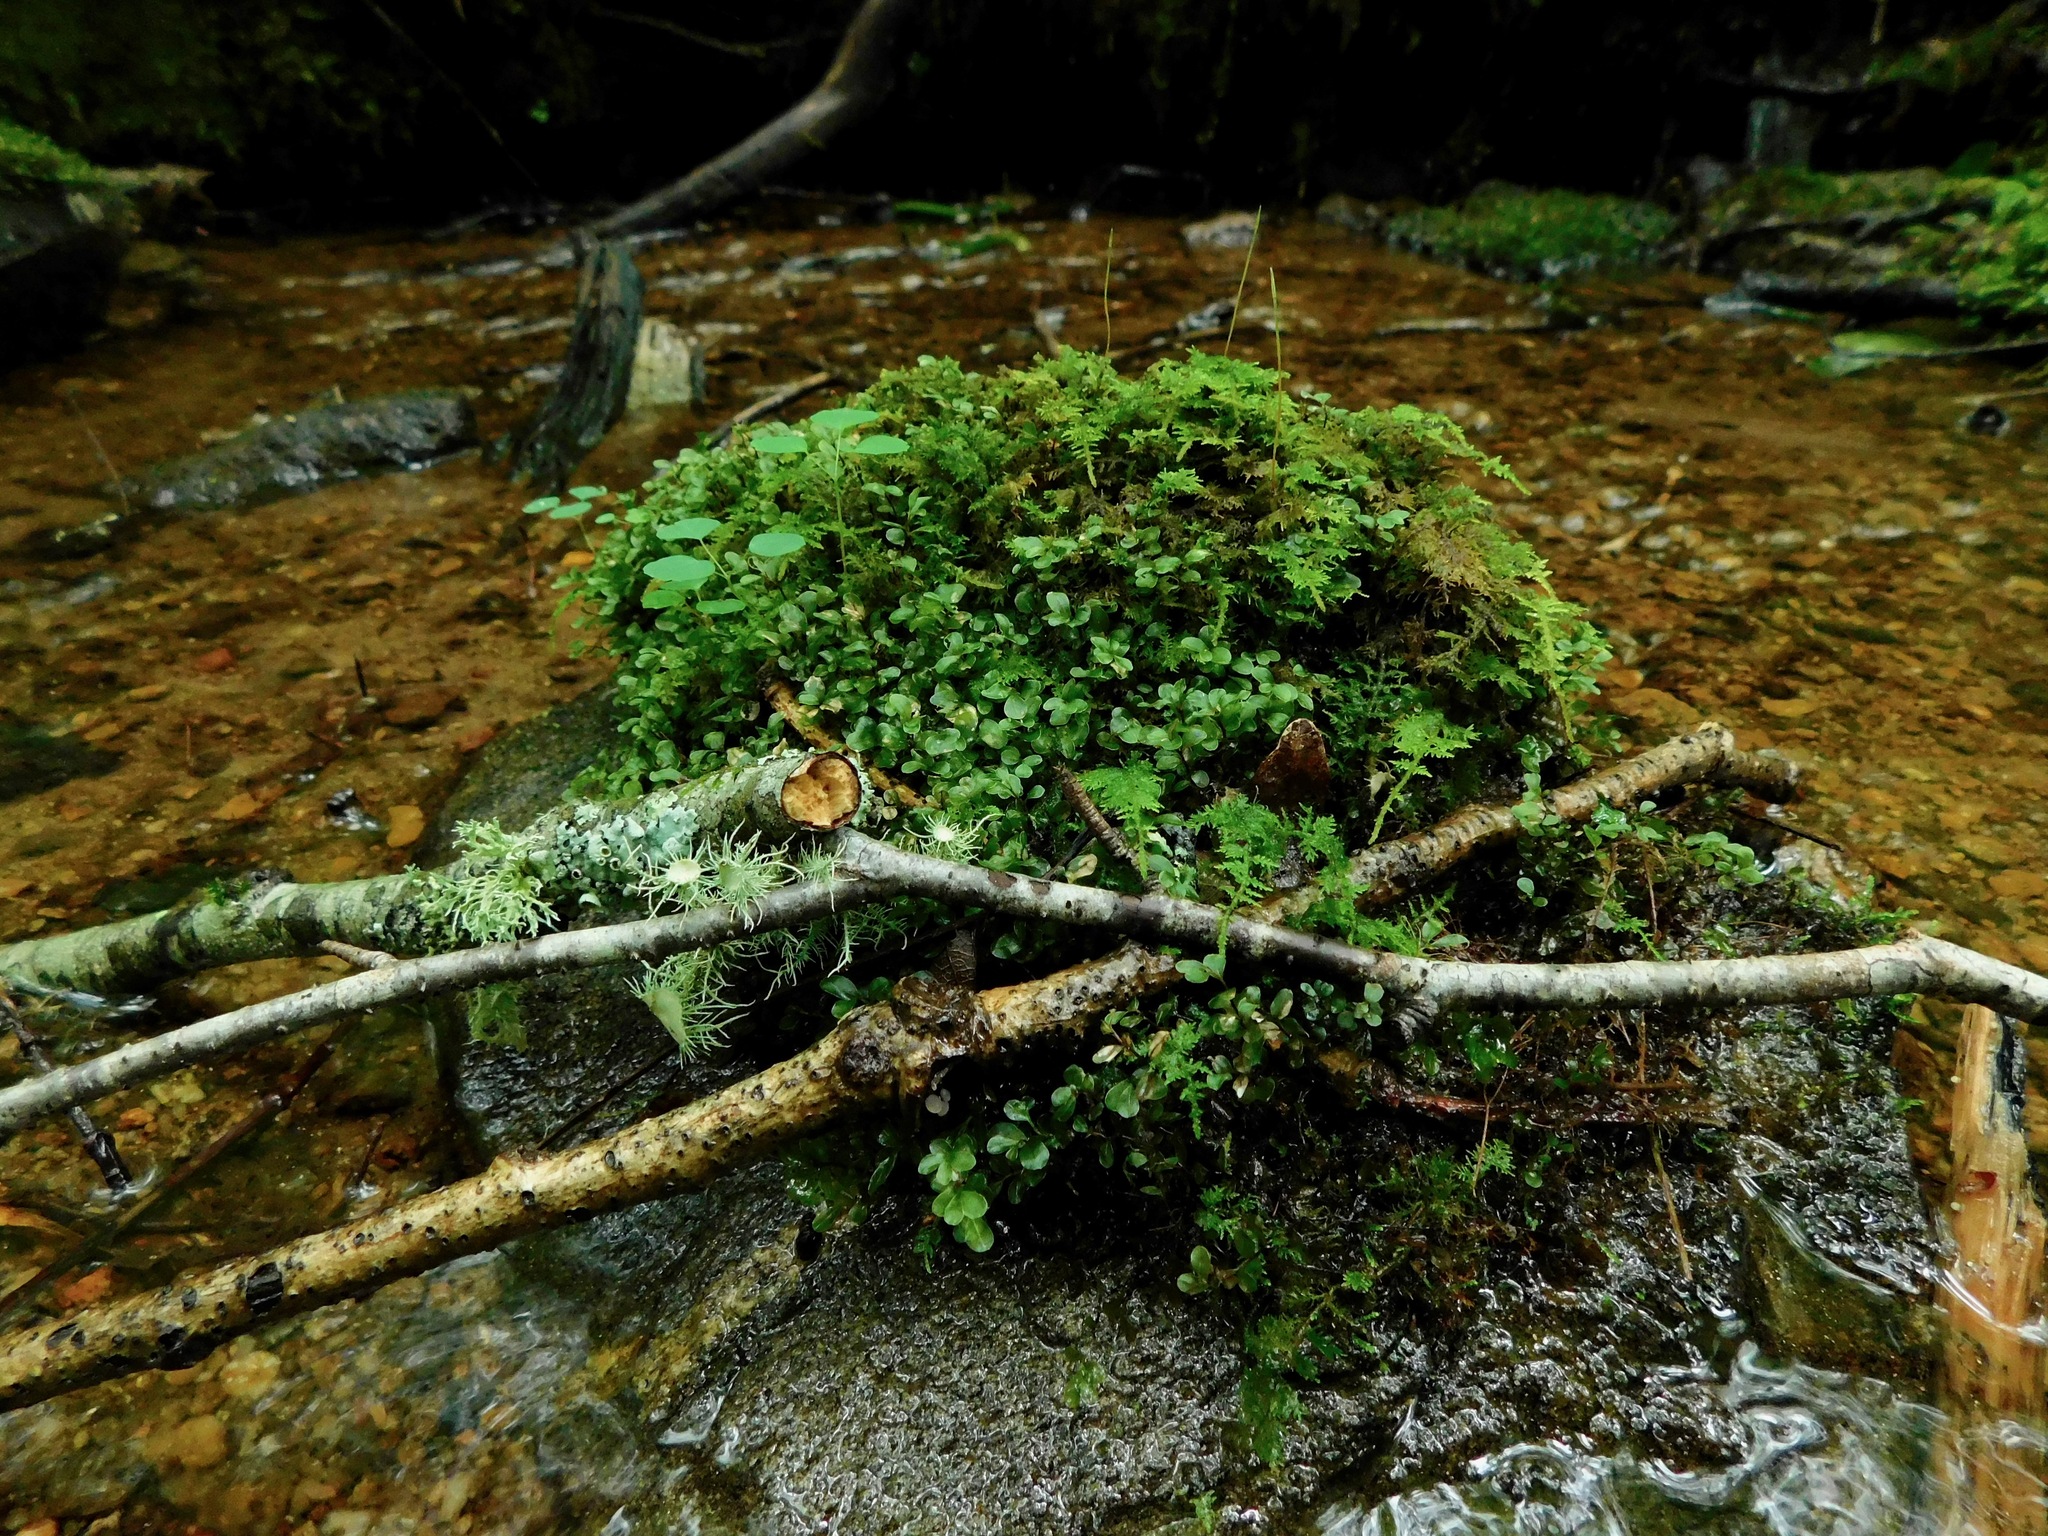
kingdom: Plantae
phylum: Bryophyta
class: Bryopsida
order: Bryales
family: Mniaceae
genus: Rhizomnium
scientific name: Rhizomnium punctatum
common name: Dotted leafy moss
